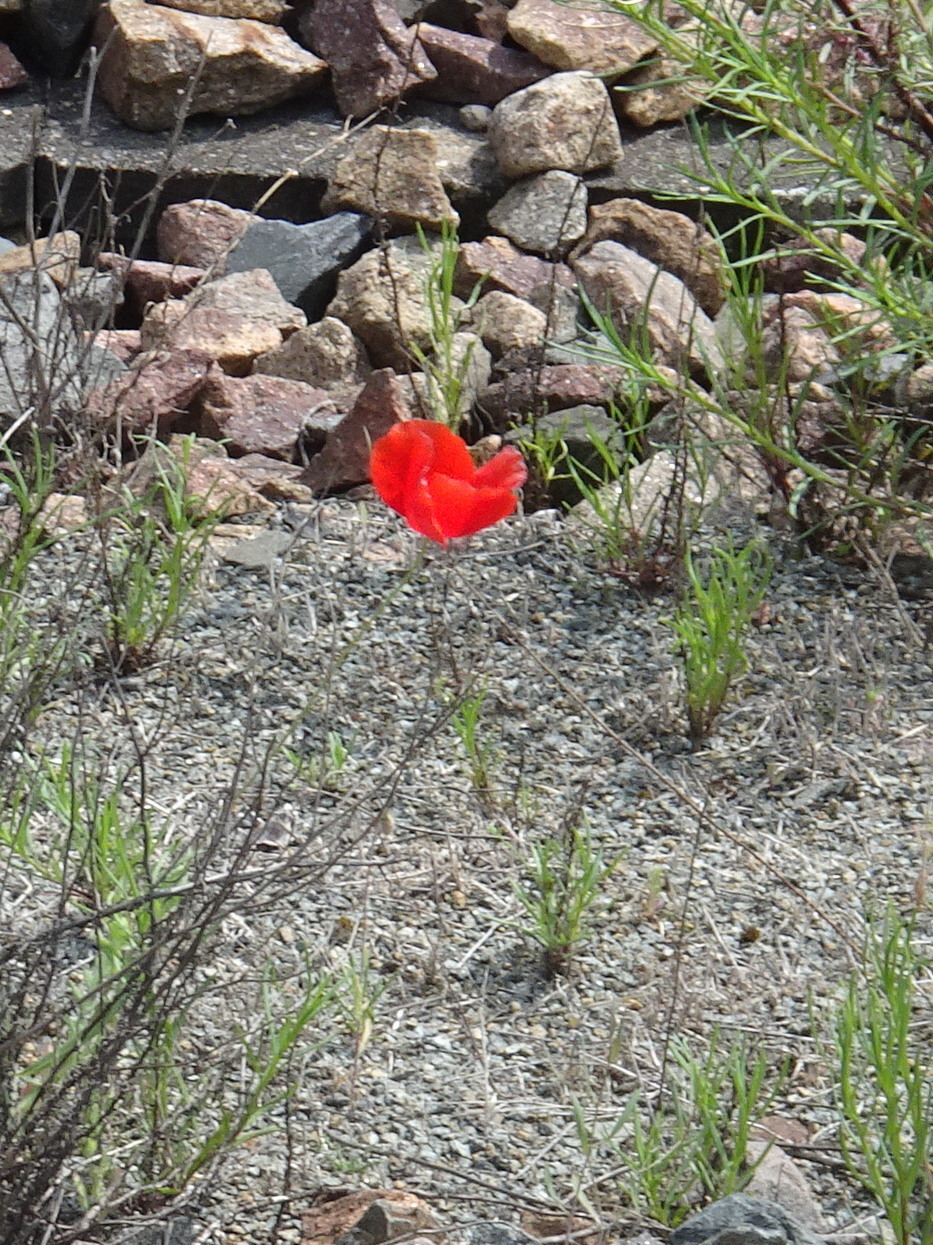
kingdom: Plantae
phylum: Tracheophyta
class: Magnoliopsida
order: Ranunculales
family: Papaveraceae
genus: Papaver
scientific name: Papaver rhoeas
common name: Corn poppy
